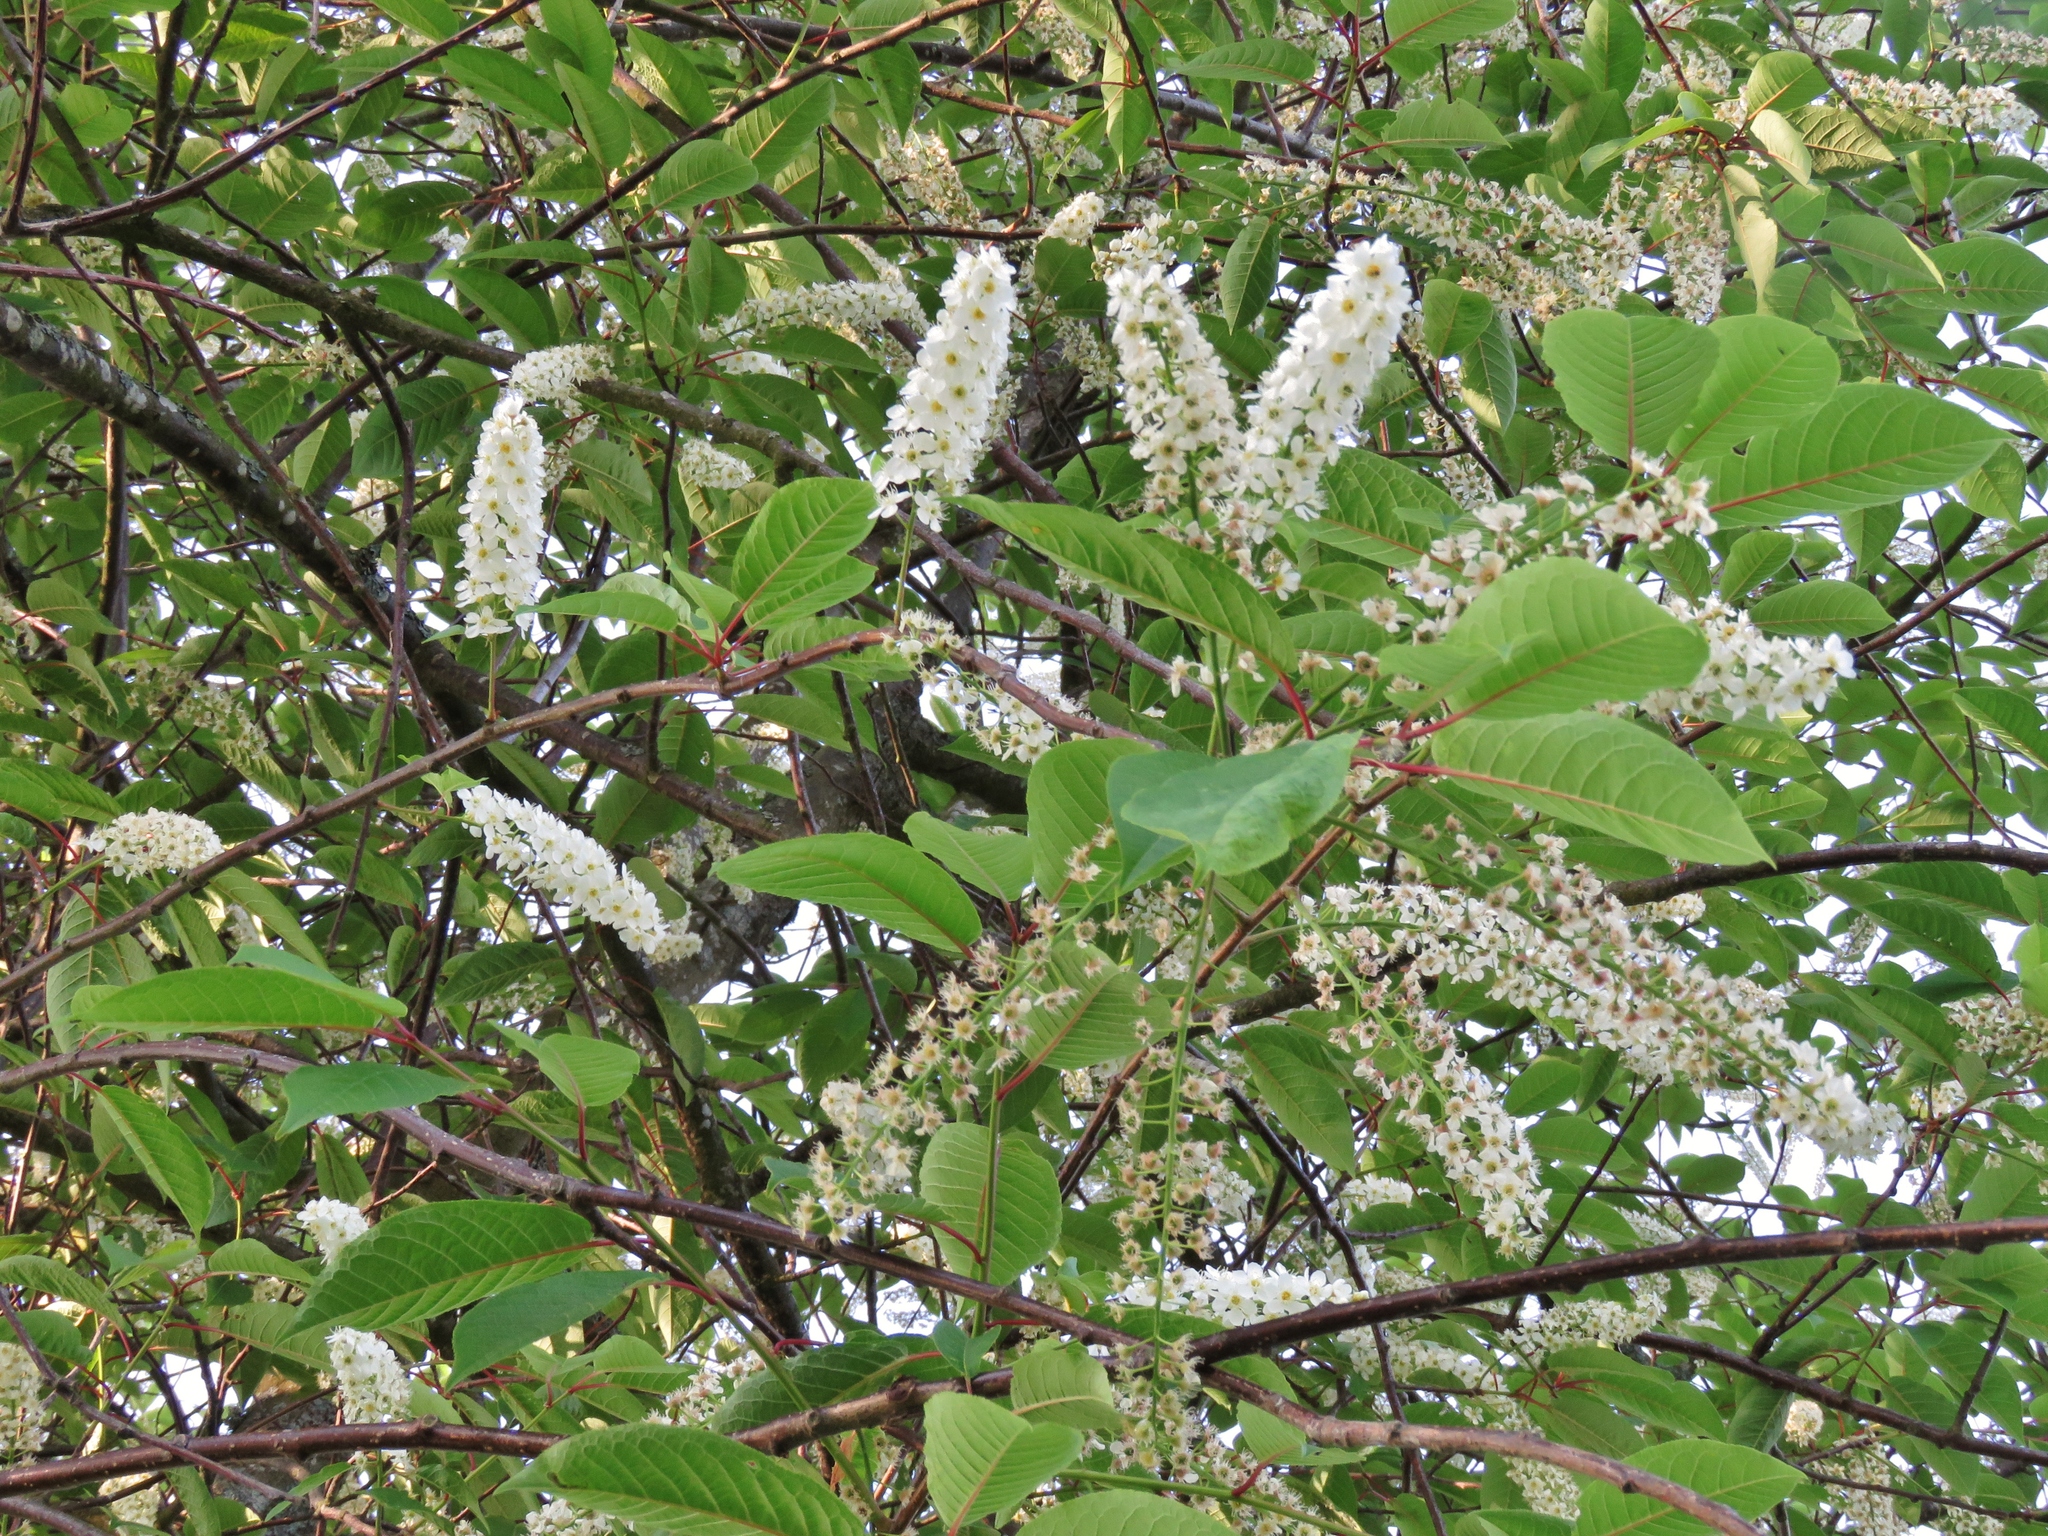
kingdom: Plantae
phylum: Tracheophyta
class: Magnoliopsida
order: Rosales
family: Rosaceae
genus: Prunus
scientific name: Prunus padus
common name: Bird cherry
